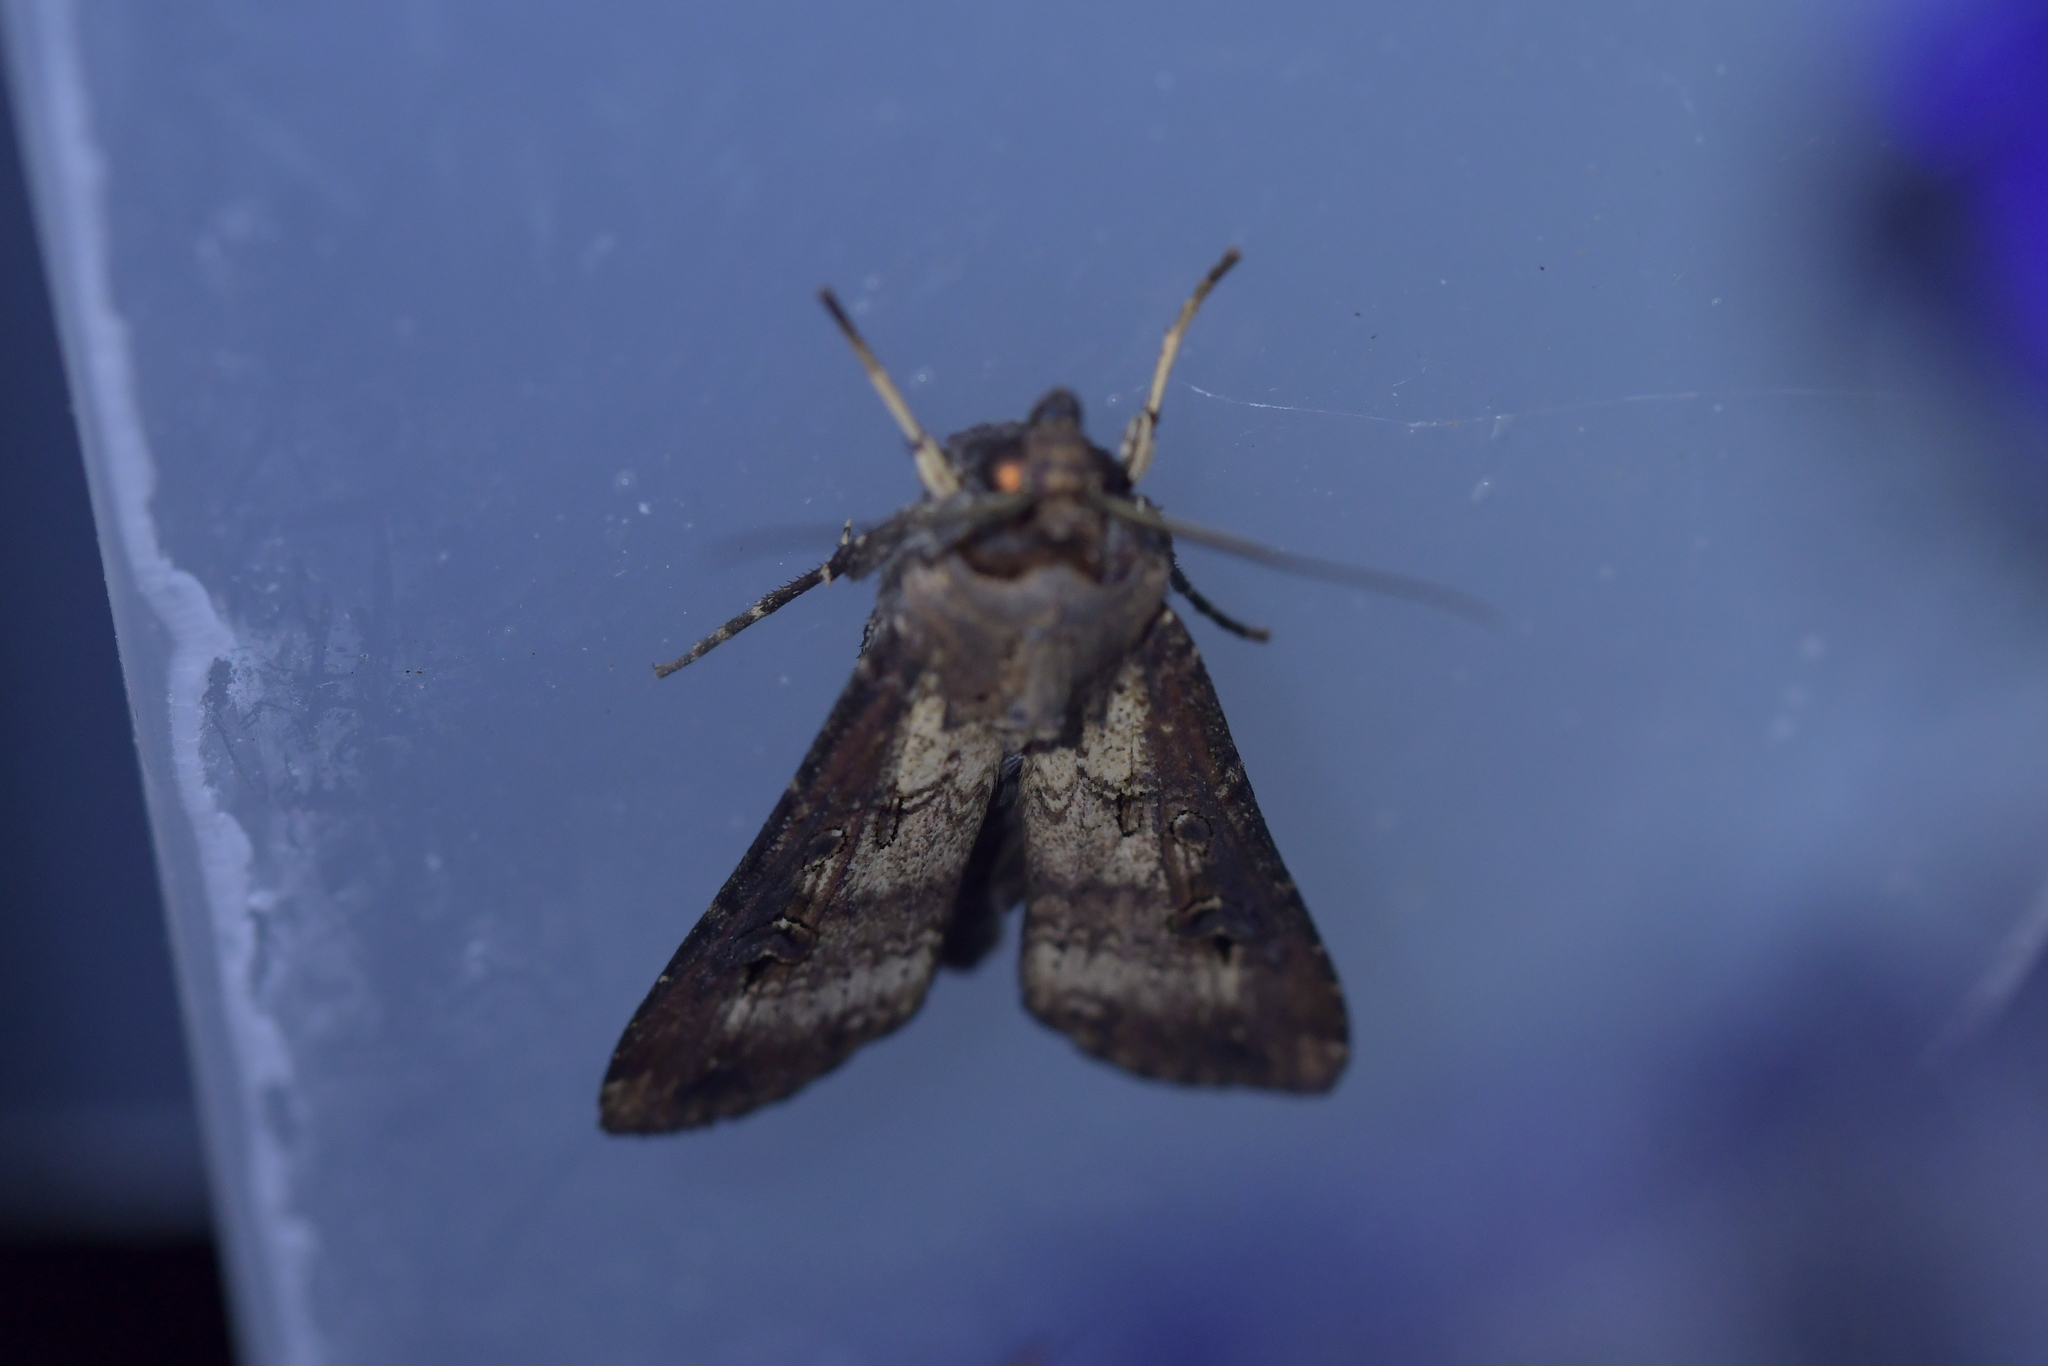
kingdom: Animalia
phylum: Arthropoda
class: Insecta
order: Lepidoptera
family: Noctuidae
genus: Agrotis
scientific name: Agrotis ipsilon
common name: Dark sword-grass
